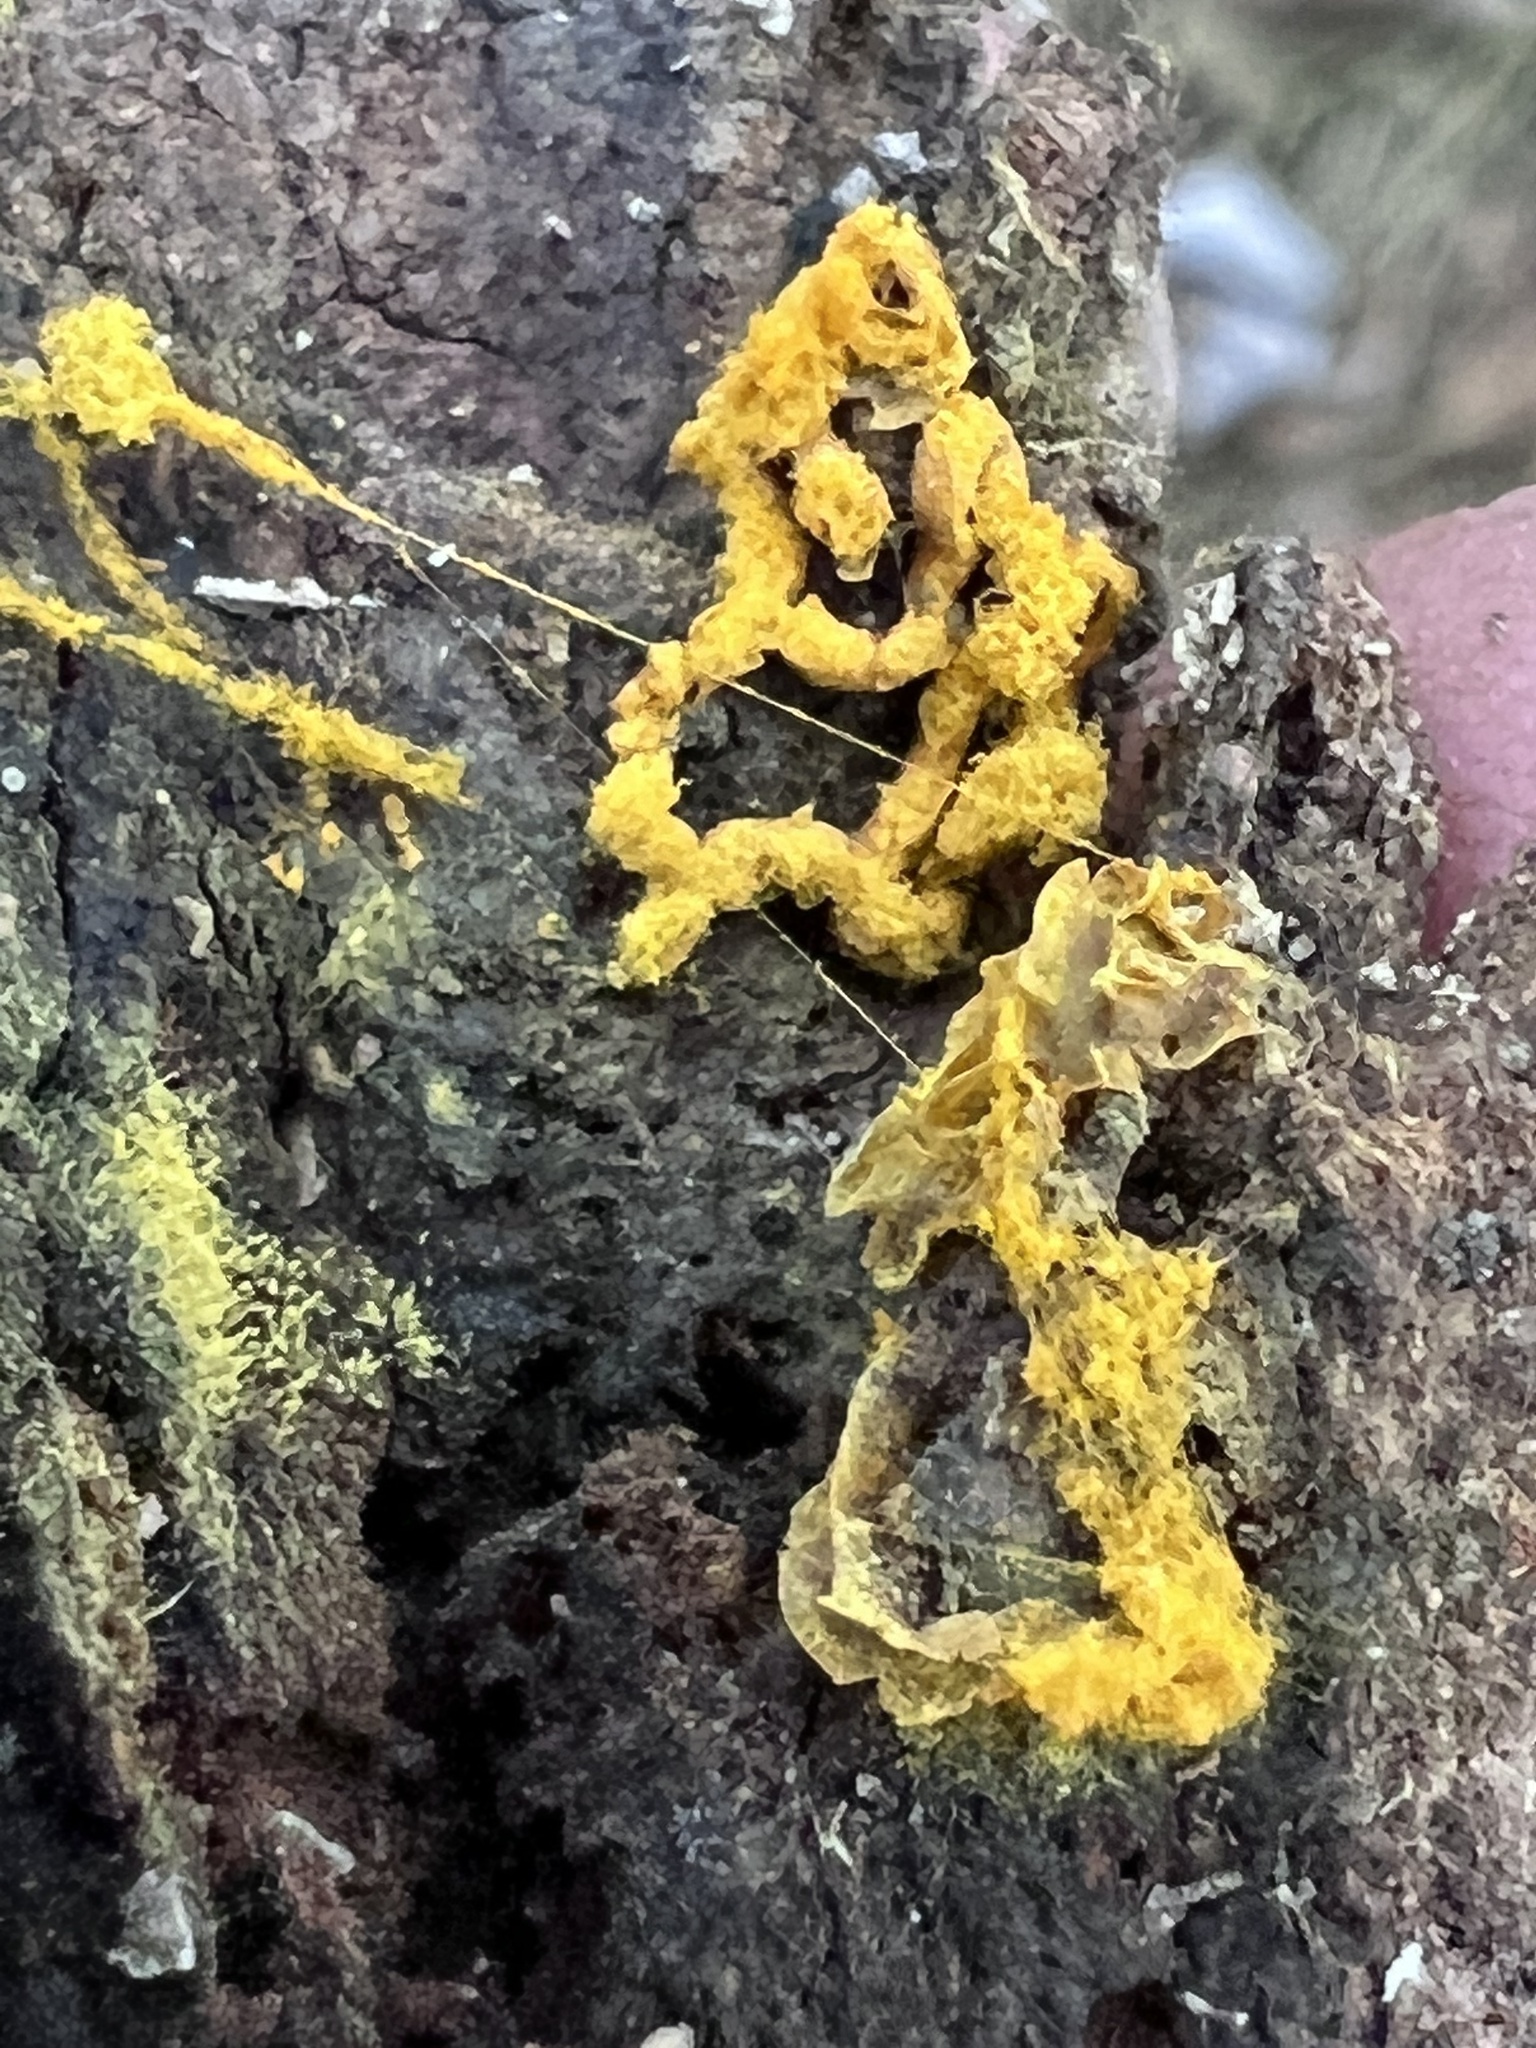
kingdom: Protozoa
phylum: Mycetozoa
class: Myxomycetes
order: Trichiales
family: Arcyriaceae
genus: Hemitrichia
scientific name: Hemitrichia serpula
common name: Pretzel slime mold
